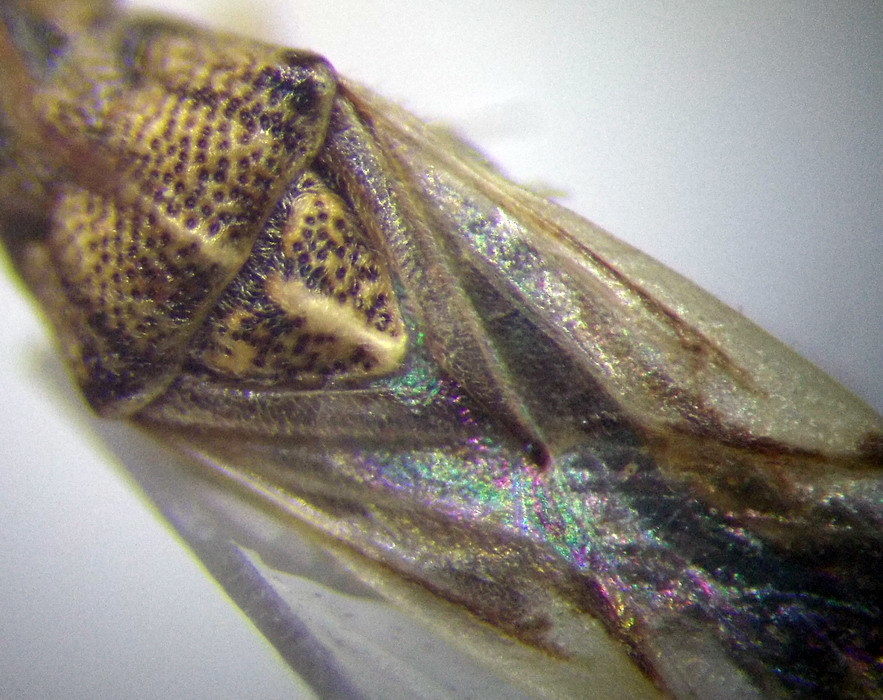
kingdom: Animalia
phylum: Arthropoda
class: Insecta
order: Hemiptera
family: Lygaeidae
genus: Nysius
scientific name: Nysius helveticus
